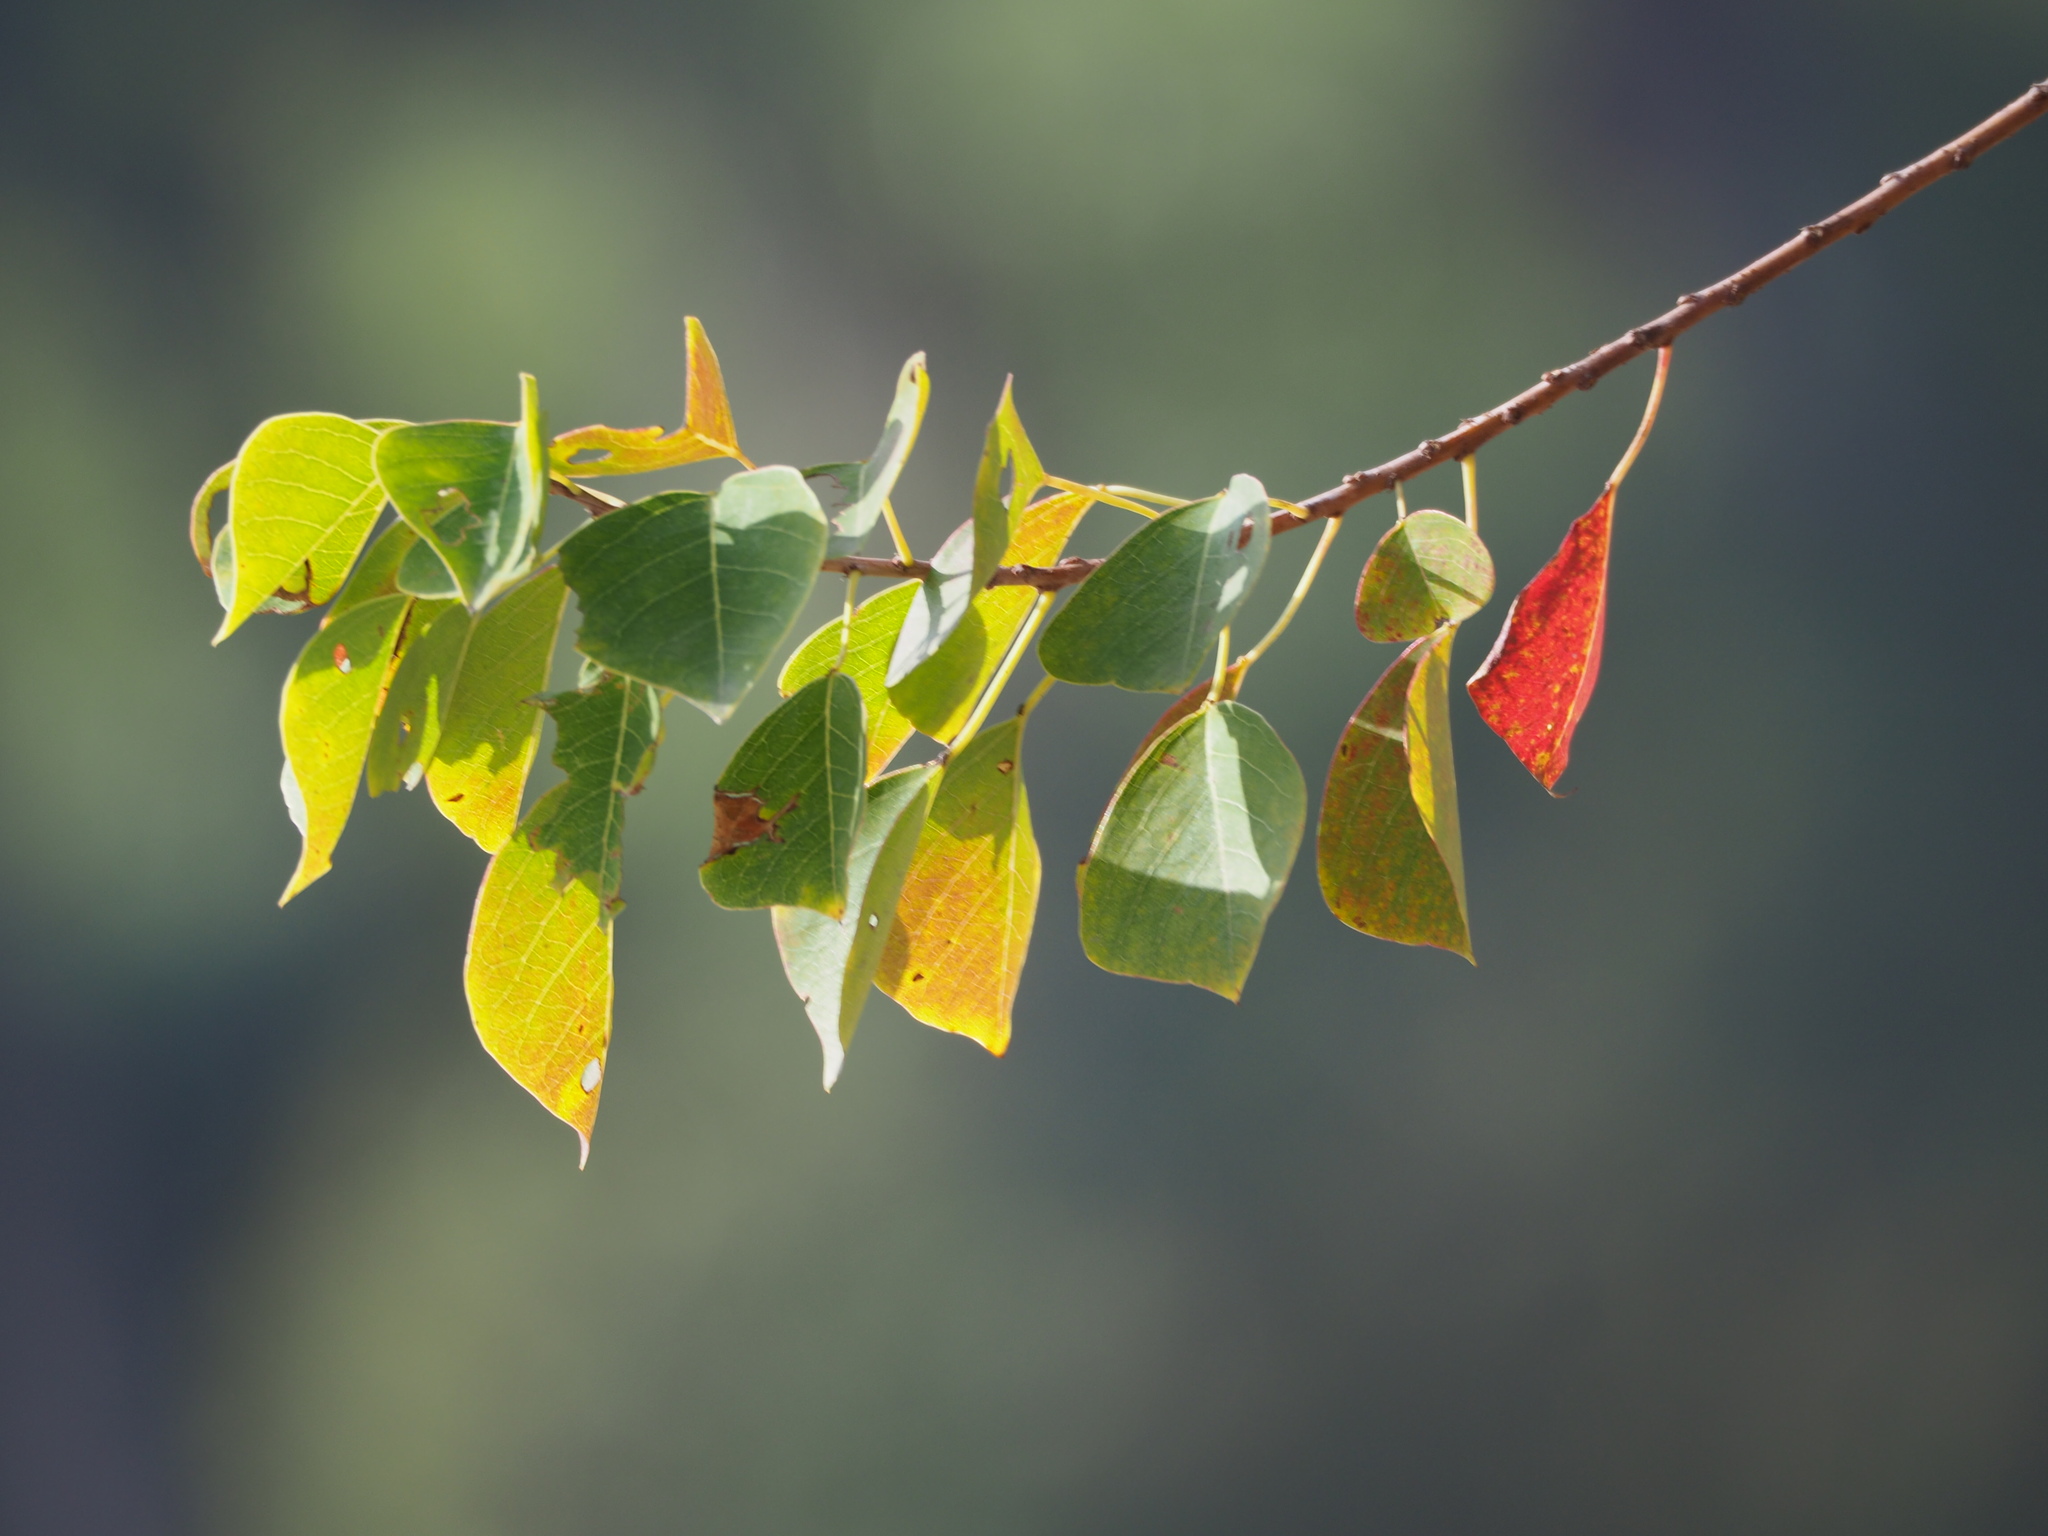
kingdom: Plantae
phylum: Tracheophyta
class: Magnoliopsida
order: Malpighiales
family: Euphorbiaceae
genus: Triadica
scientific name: Triadica sebifera
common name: Chinese tallow
